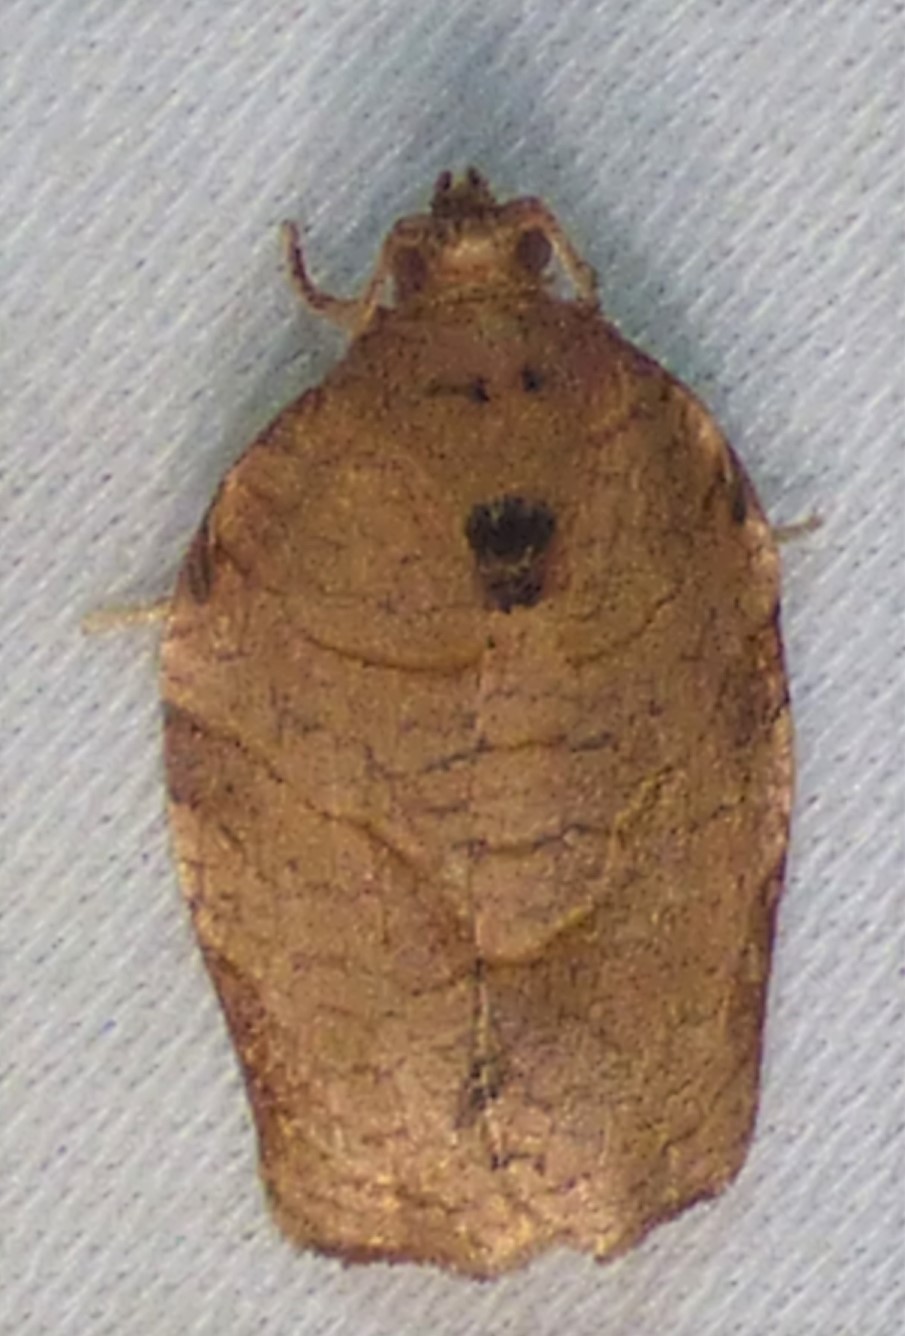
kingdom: Animalia
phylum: Arthropoda
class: Insecta
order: Lepidoptera
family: Tortricidae
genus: Choristoneura
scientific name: Choristoneura rosaceana
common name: Oblique-banded leafroller moth
